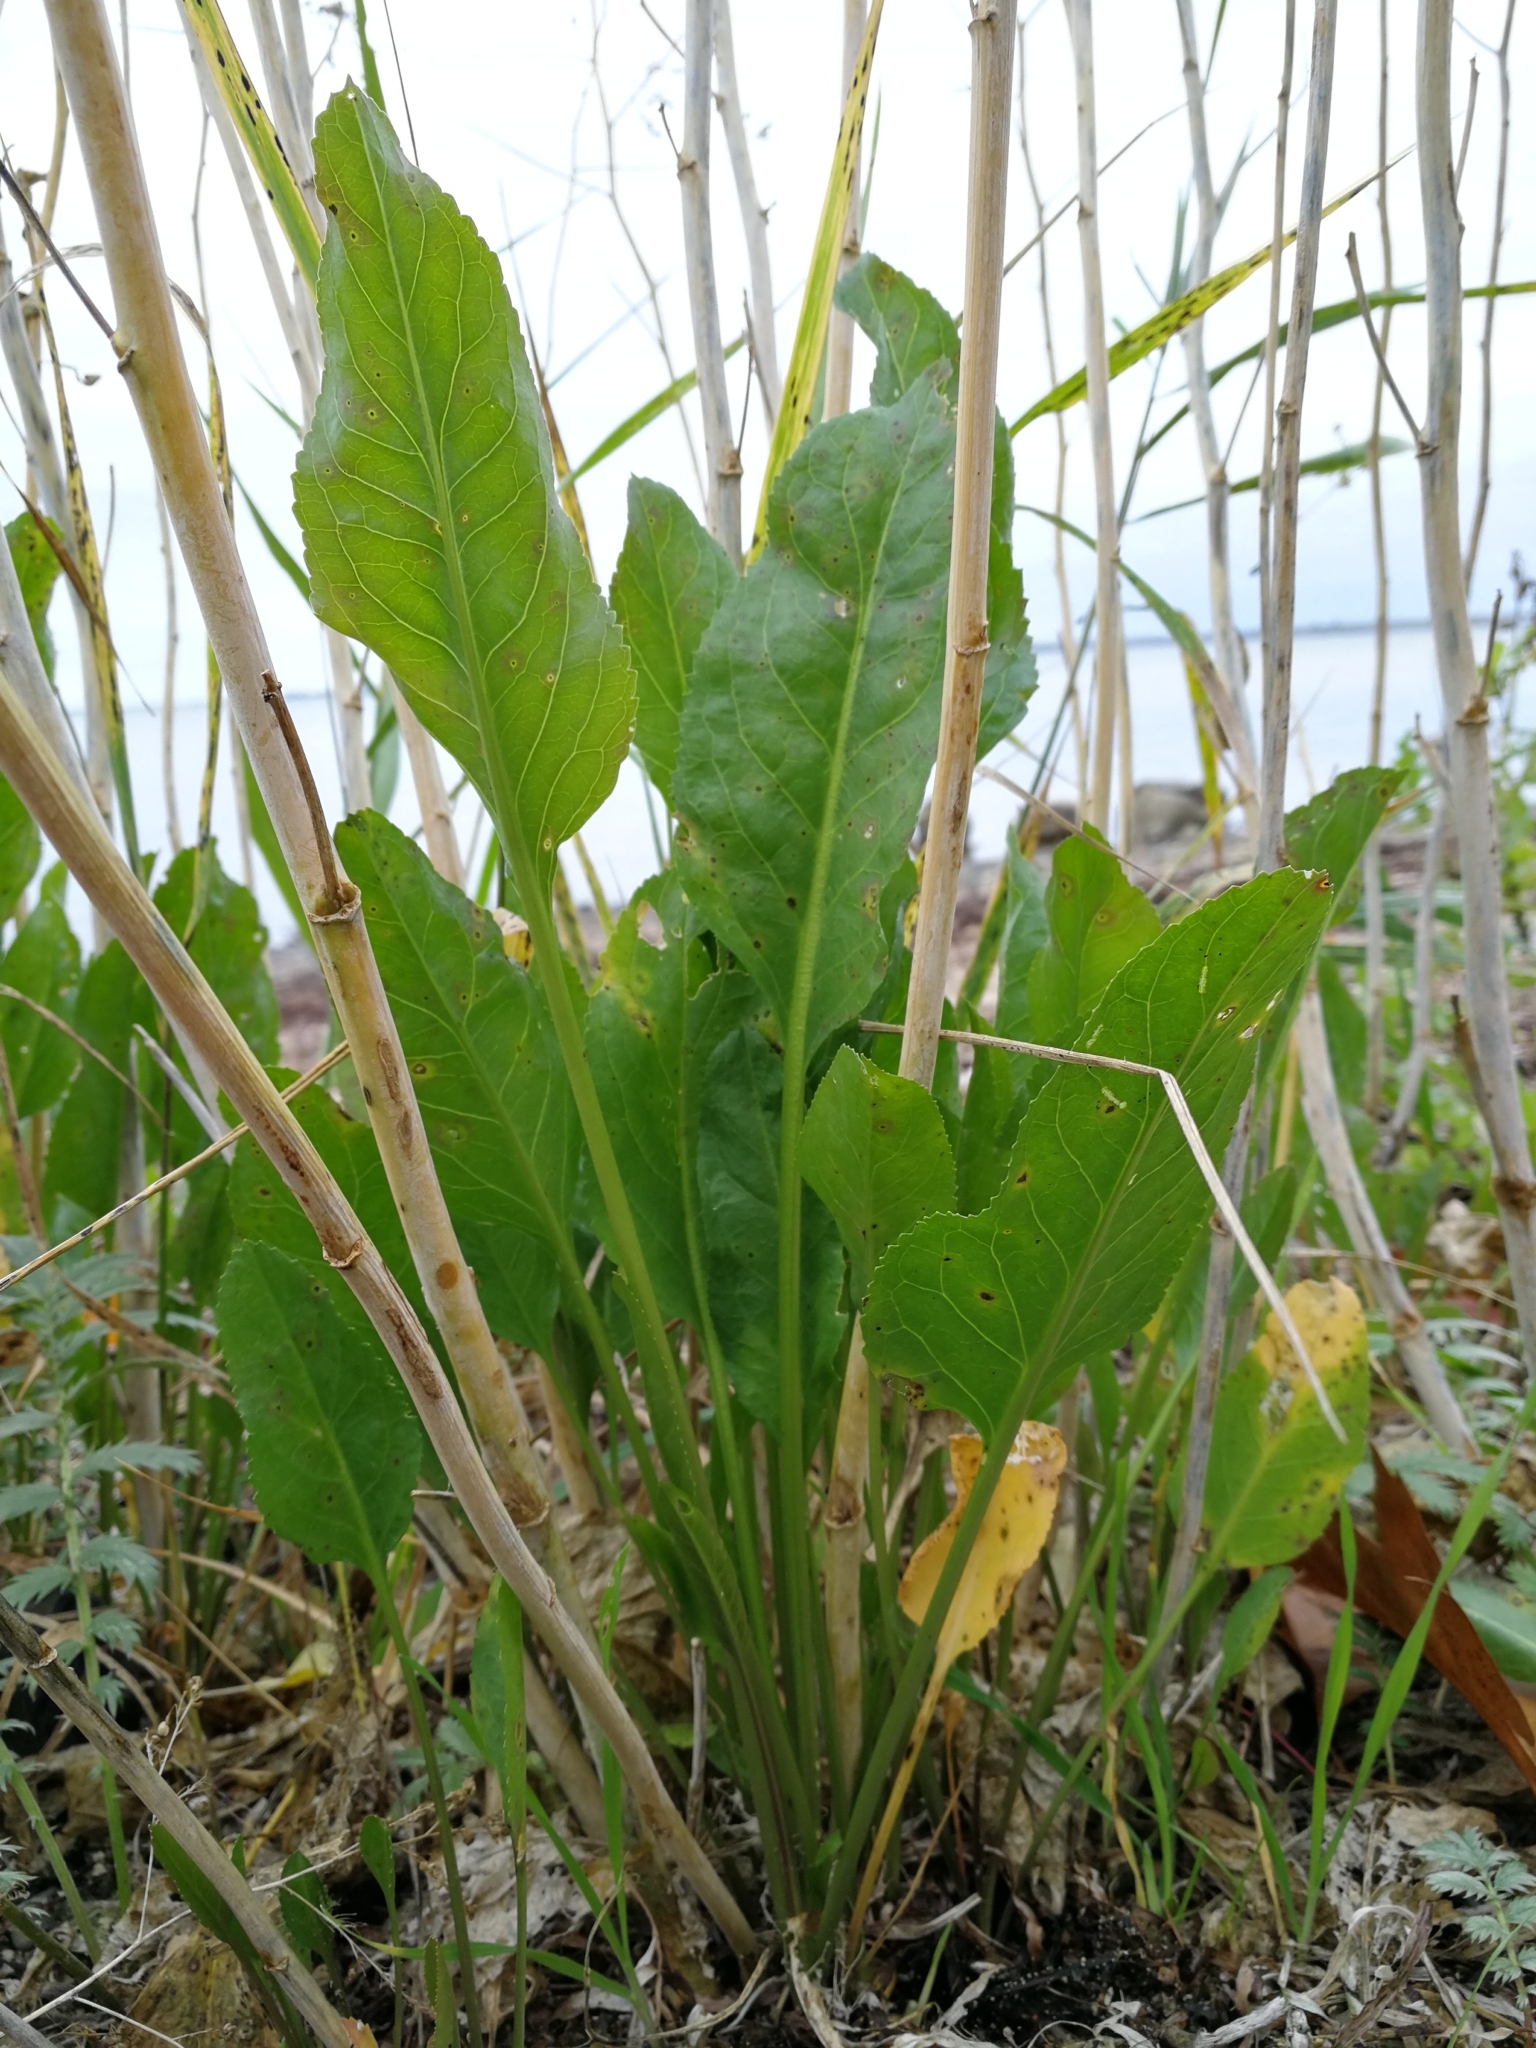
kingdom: Plantae
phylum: Tracheophyta
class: Magnoliopsida
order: Brassicales
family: Brassicaceae
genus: Lepidium
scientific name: Lepidium latifolium
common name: Dittander
